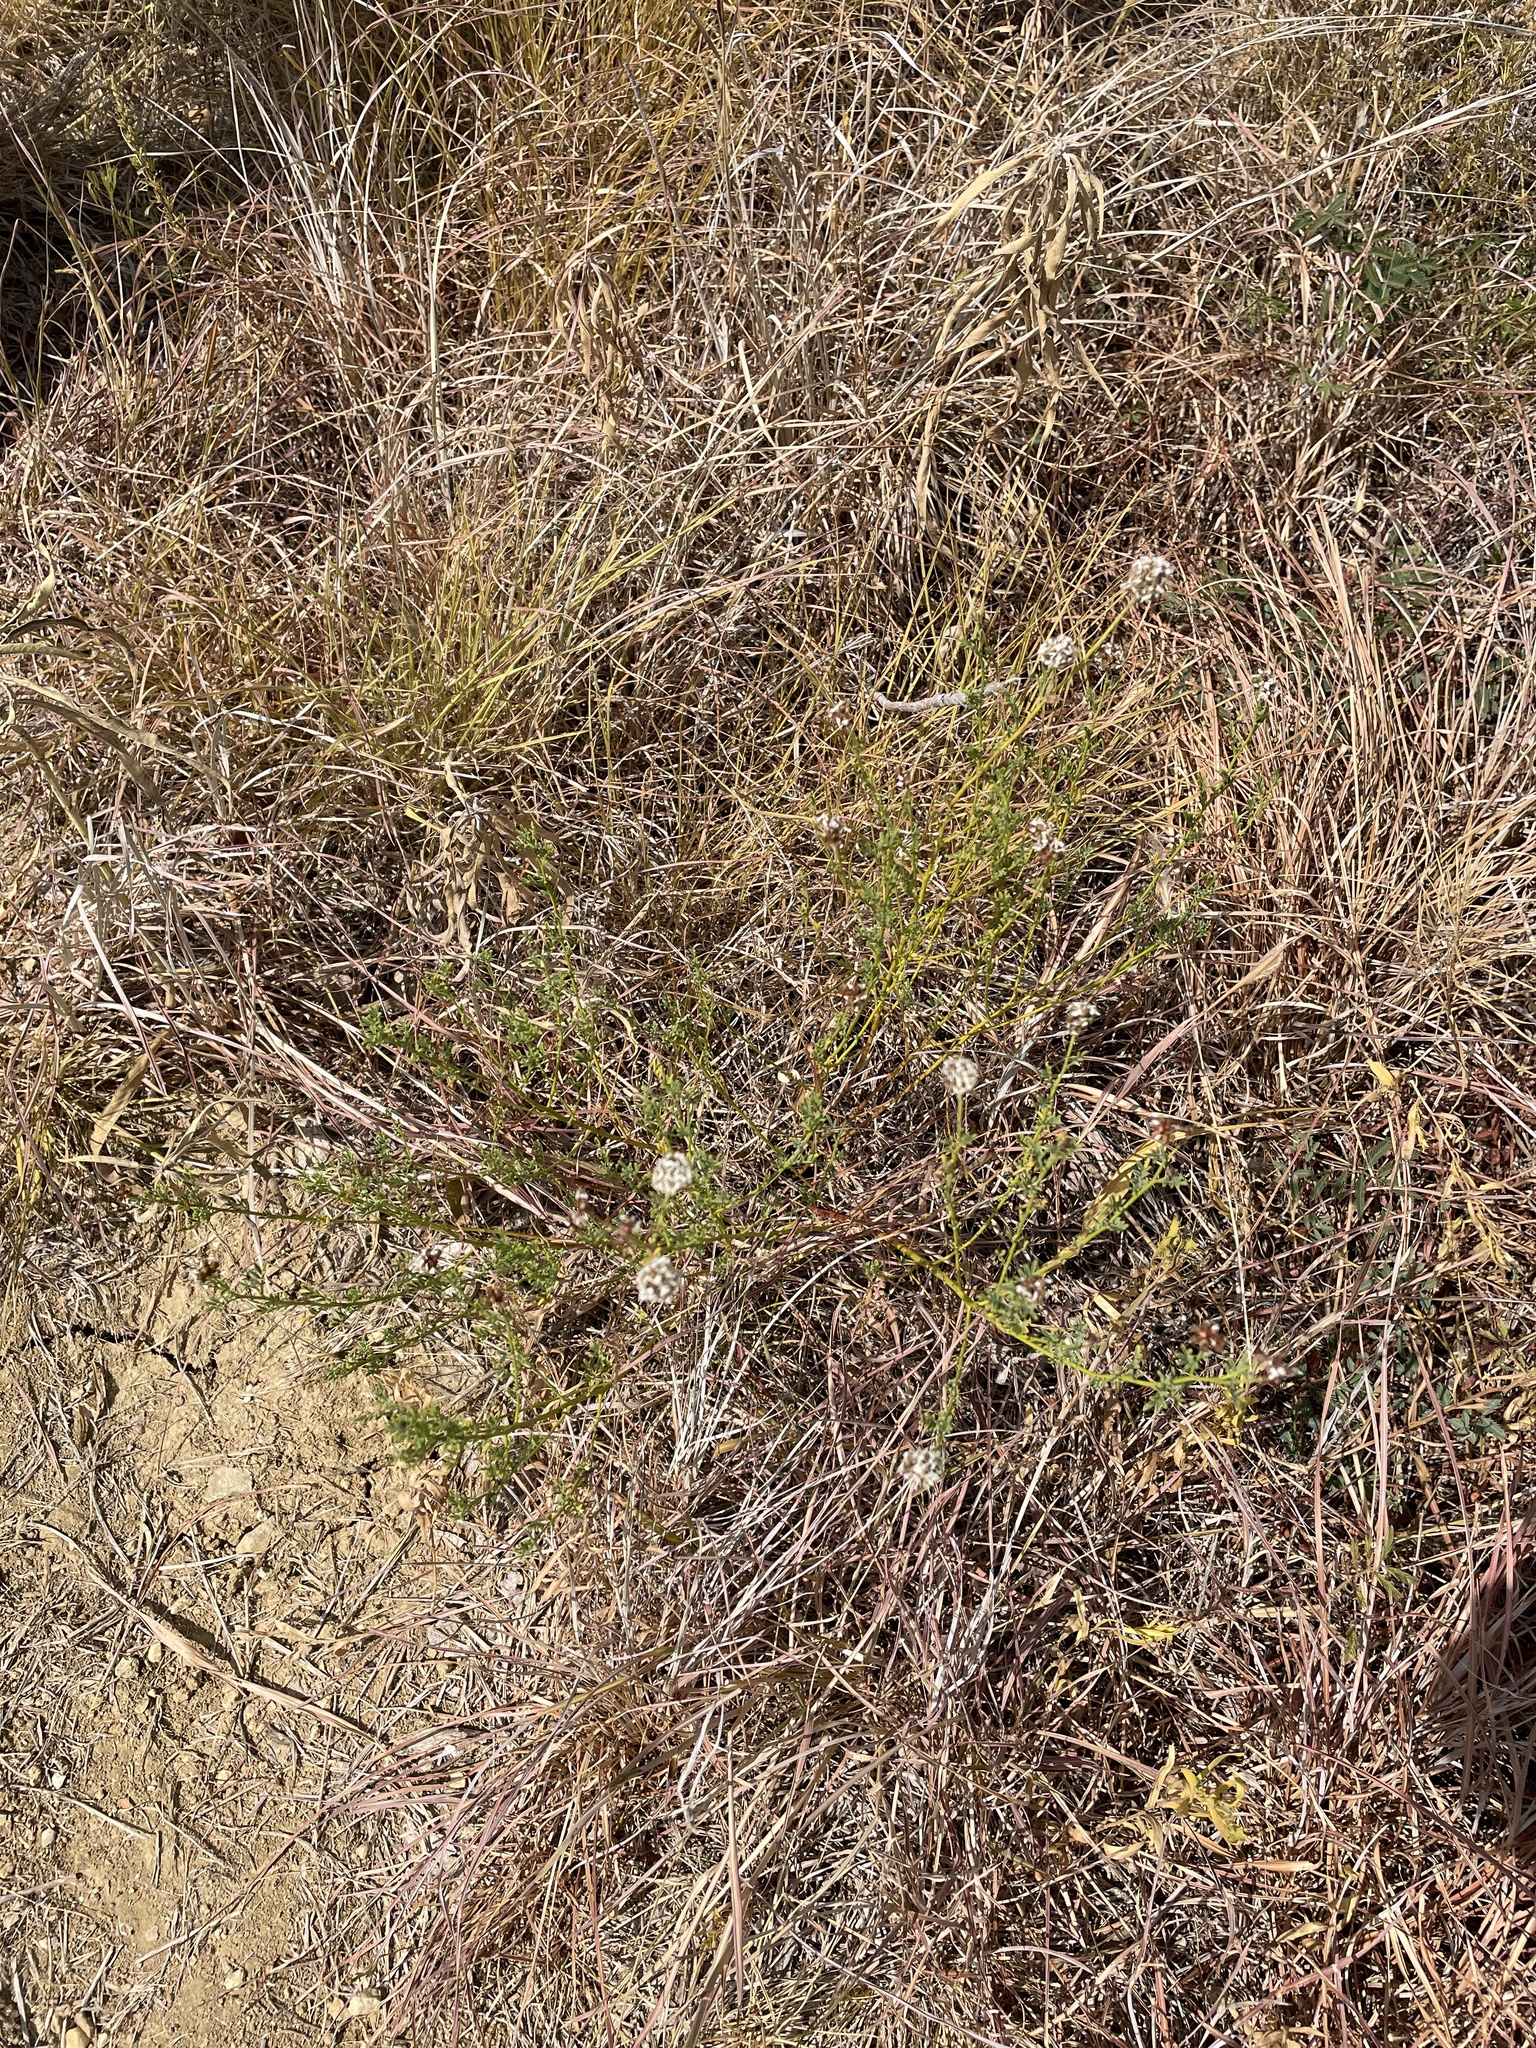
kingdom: Plantae
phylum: Tracheophyta
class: Magnoliopsida
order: Fabales
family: Fabaceae
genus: Dalea
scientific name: Dalea multiflora
